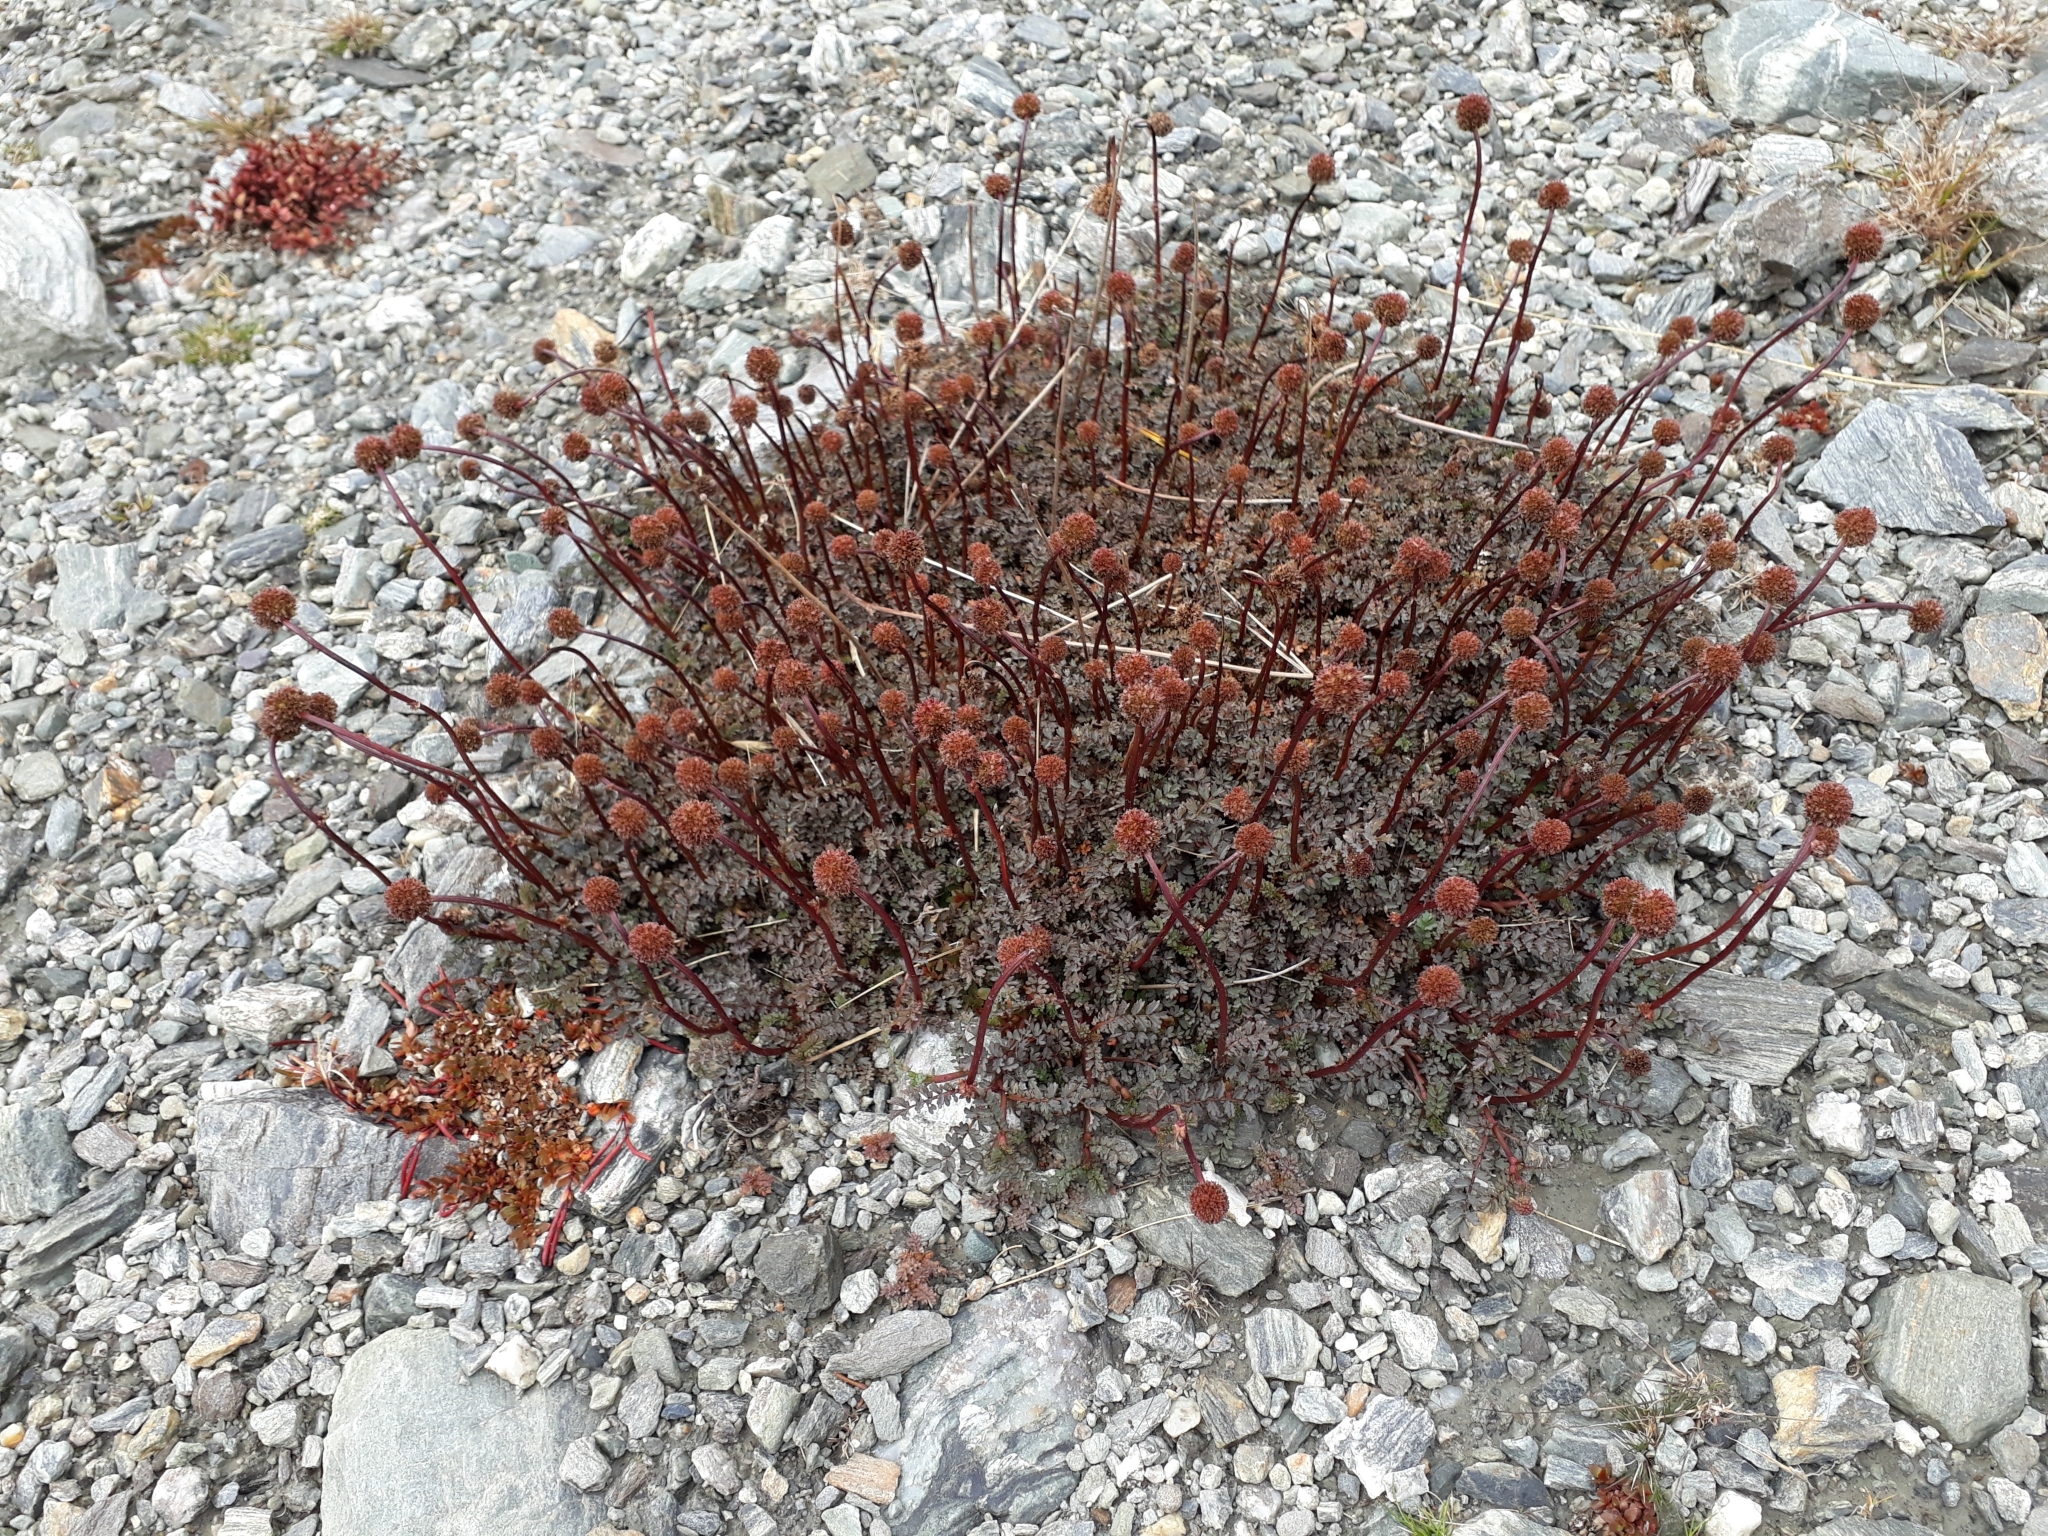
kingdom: Plantae
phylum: Tracheophyta
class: Magnoliopsida
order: Rosales
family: Rosaceae
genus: Acaena
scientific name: Acaena saccaticupula
